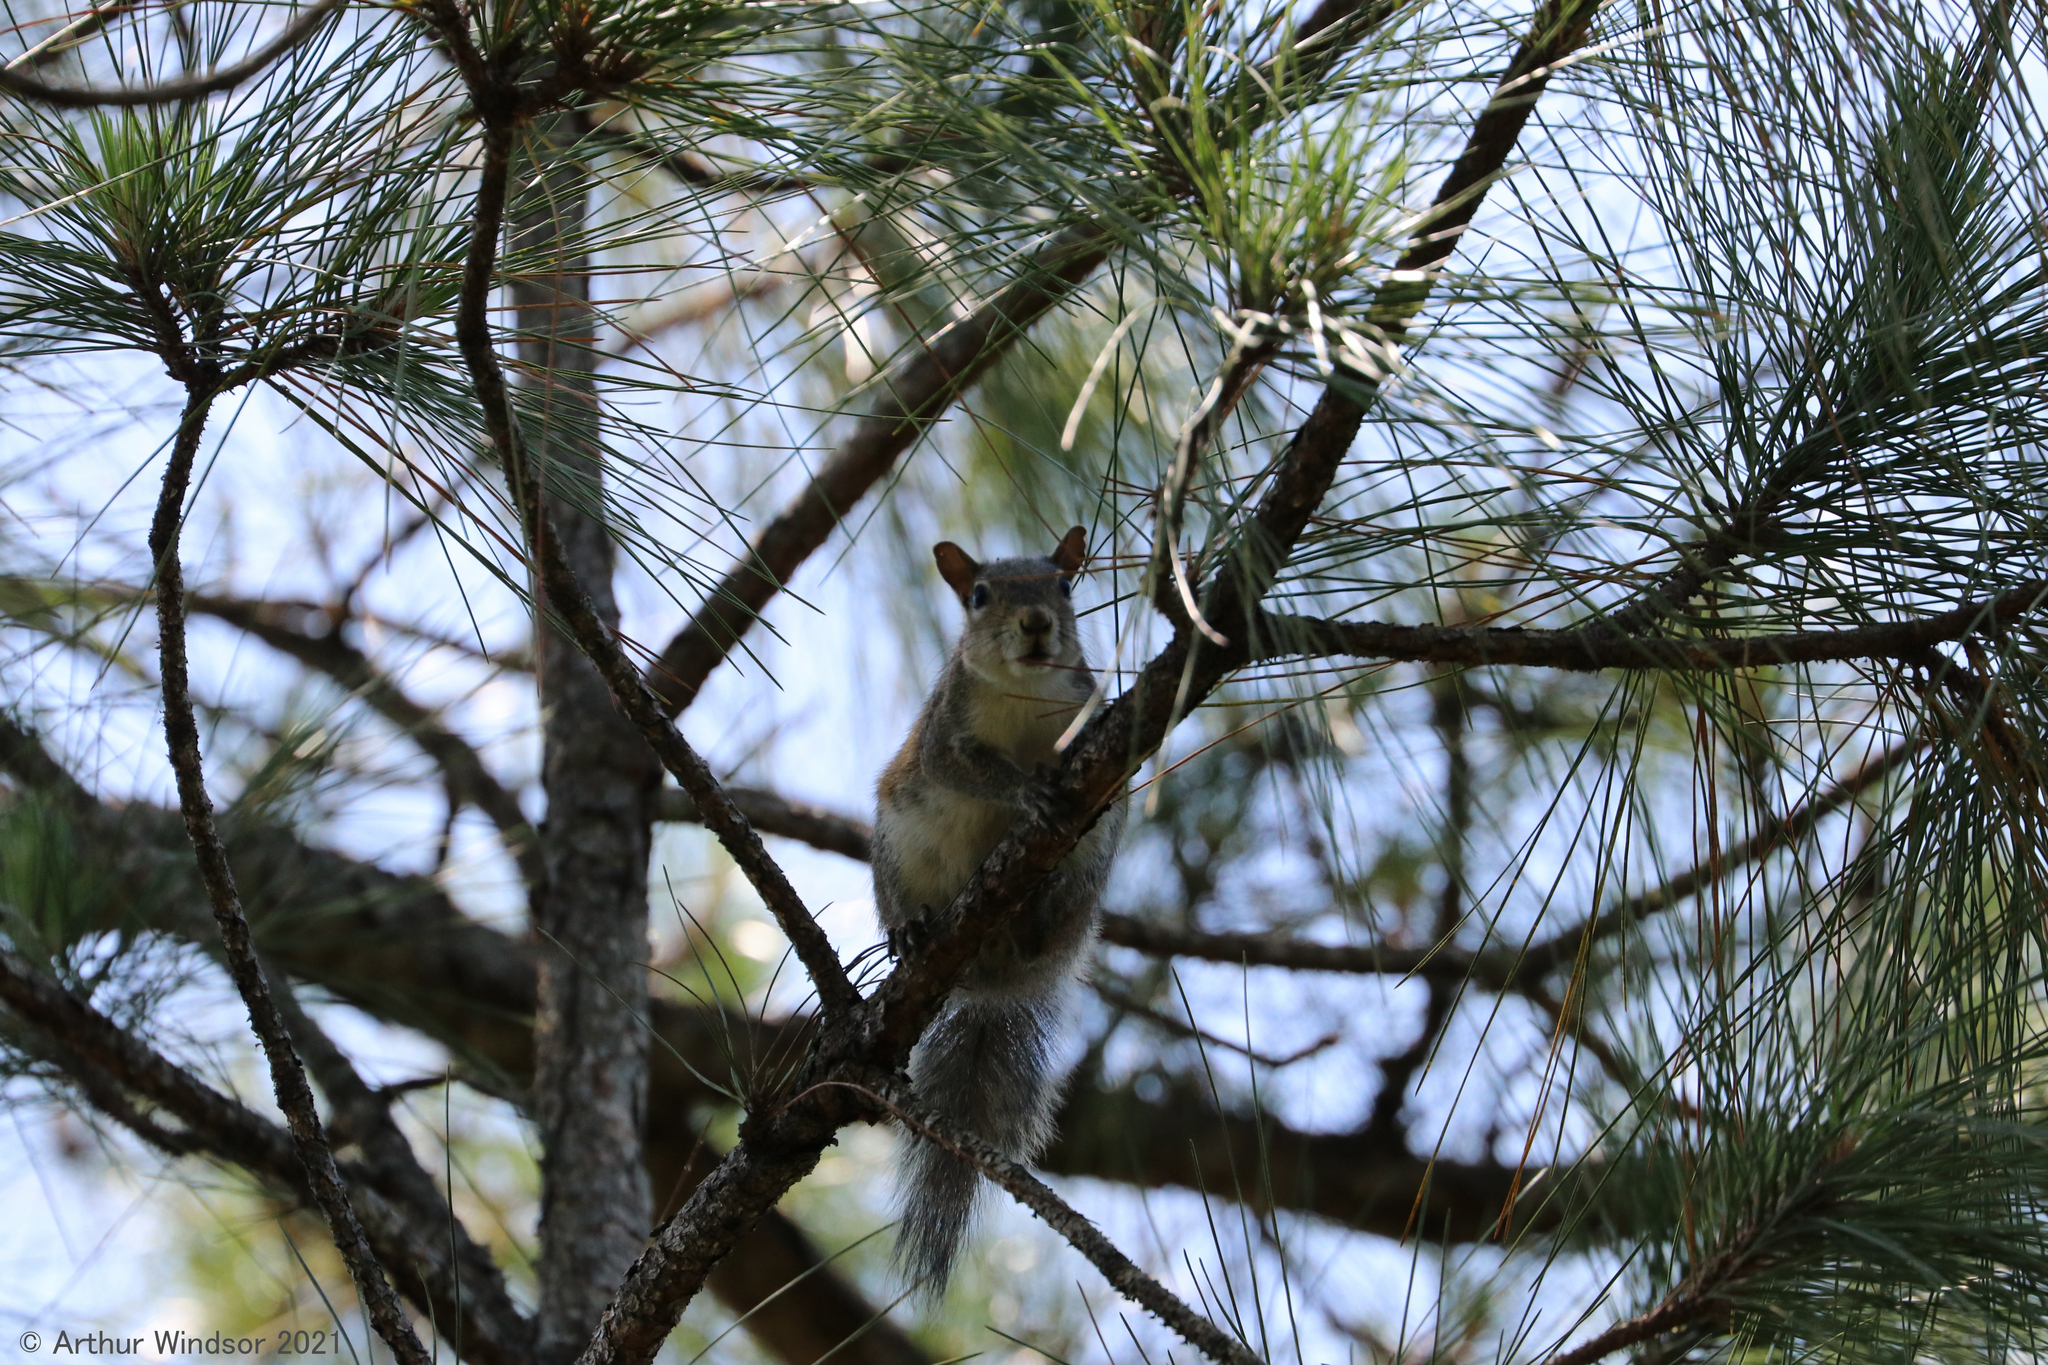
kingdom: Animalia
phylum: Chordata
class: Mammalia
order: Rodentia
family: Sciuridae
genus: Sciurus
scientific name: Sciurus carolinensis
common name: Eastern gray squirrel
